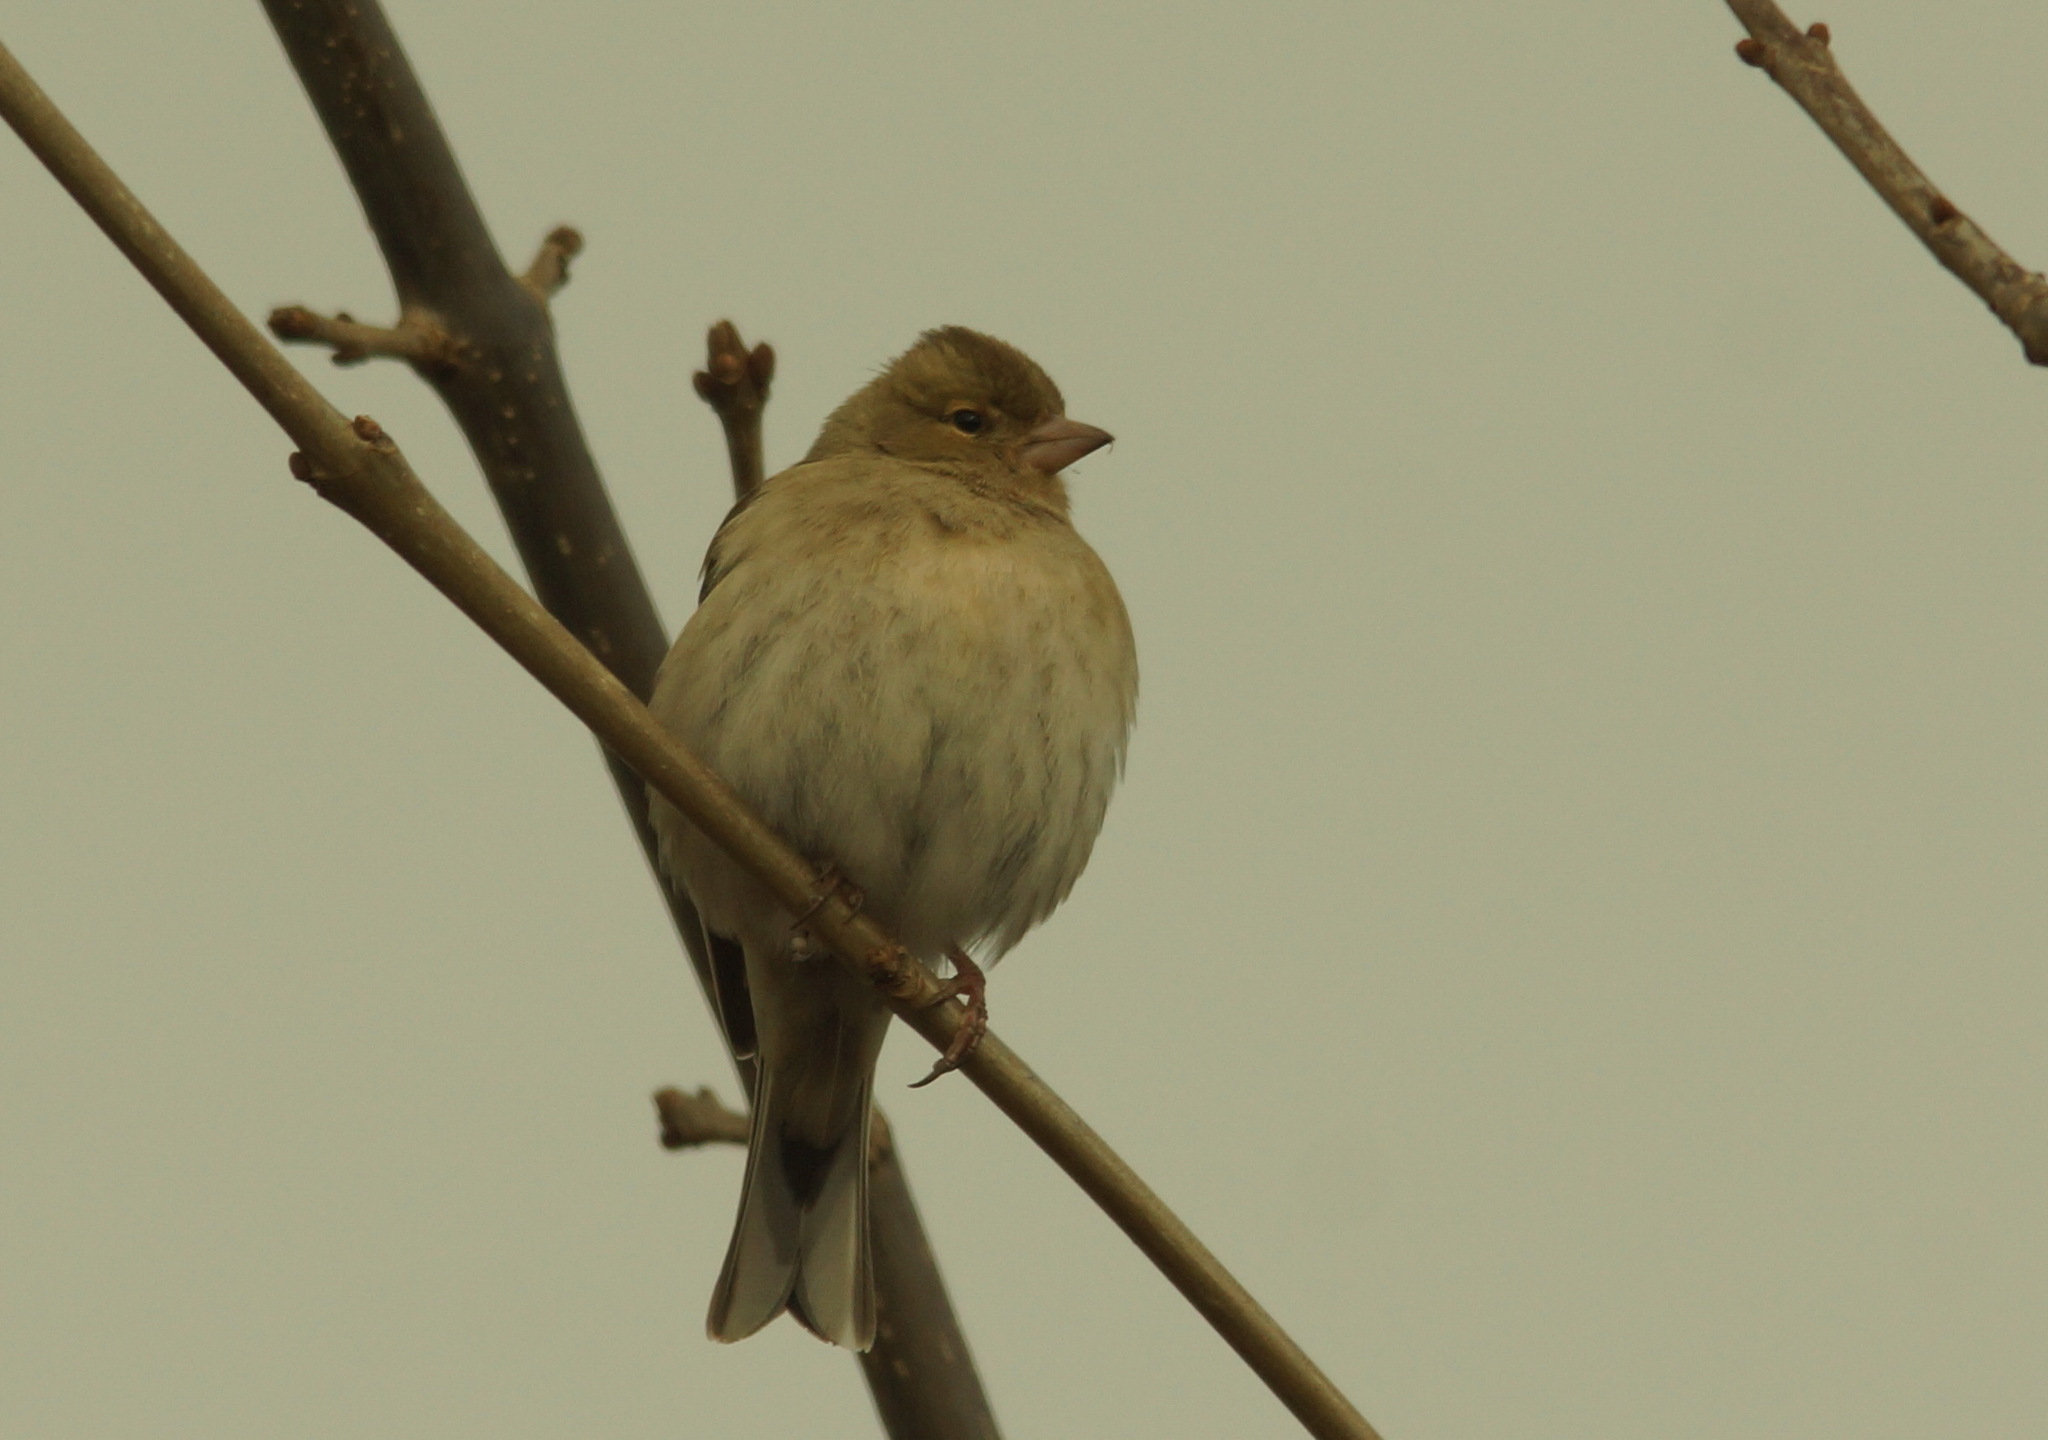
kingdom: Animalia
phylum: Chordata
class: Aves
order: Passeriformes
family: Fringillidae
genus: Fringilla
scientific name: Fringilla coelebs
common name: Common chaffinch
